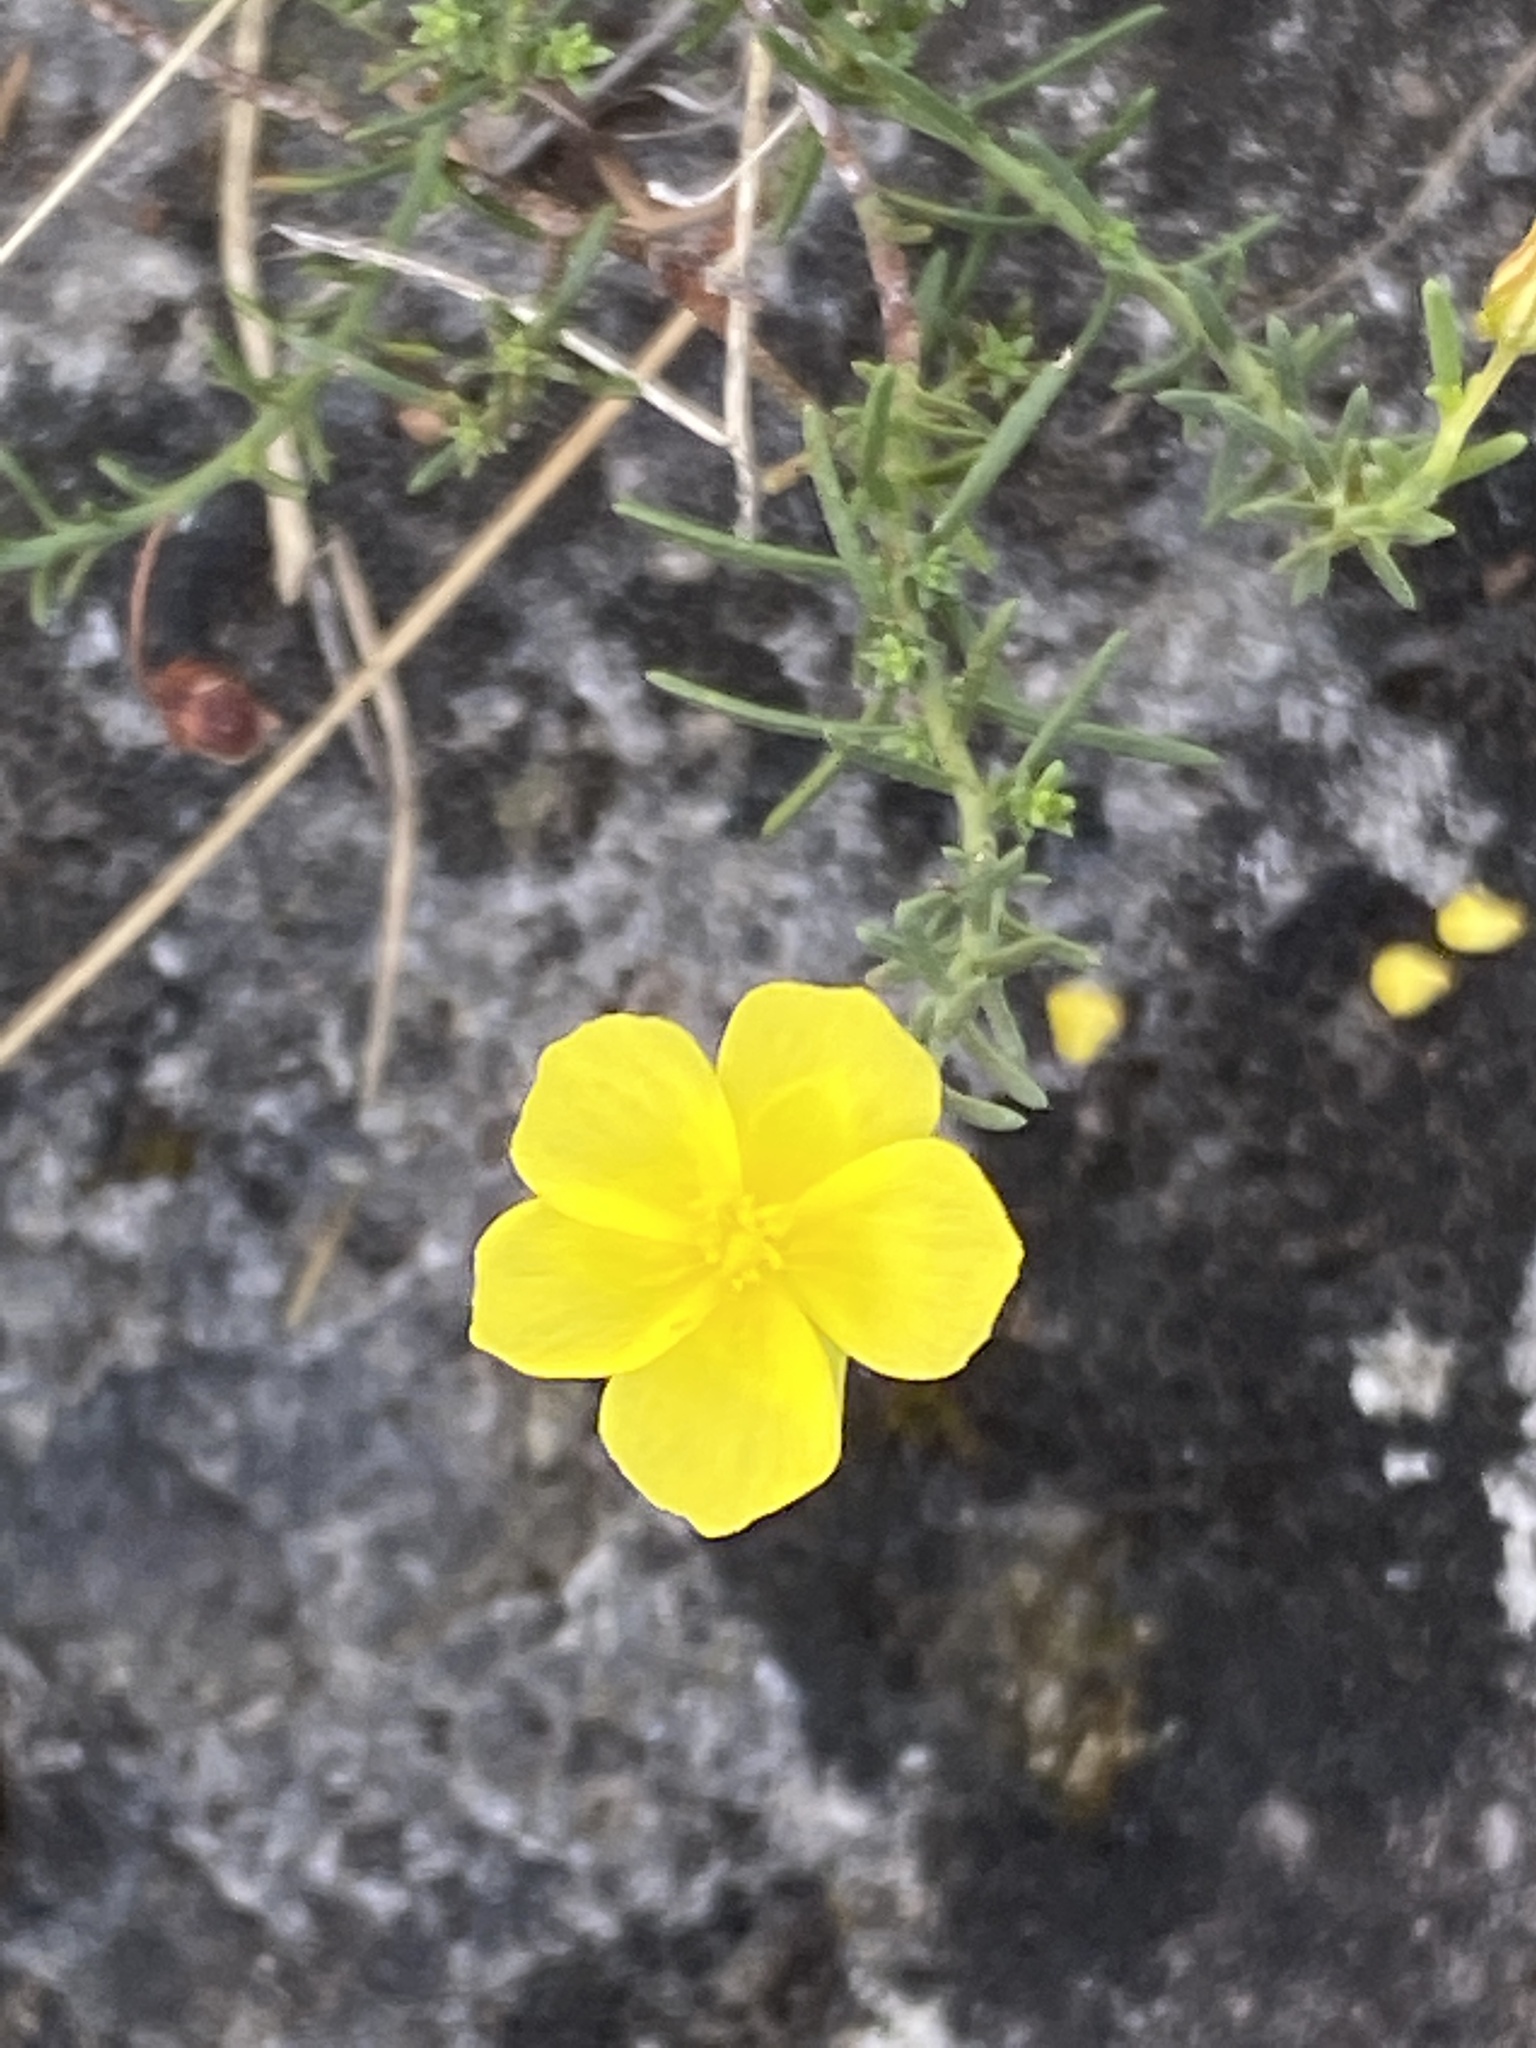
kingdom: Plantae
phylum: Tracheophyta
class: Magnoliopsida
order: Malvales
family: Cistaceae
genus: Fumana
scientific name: Fumana ericifolia
